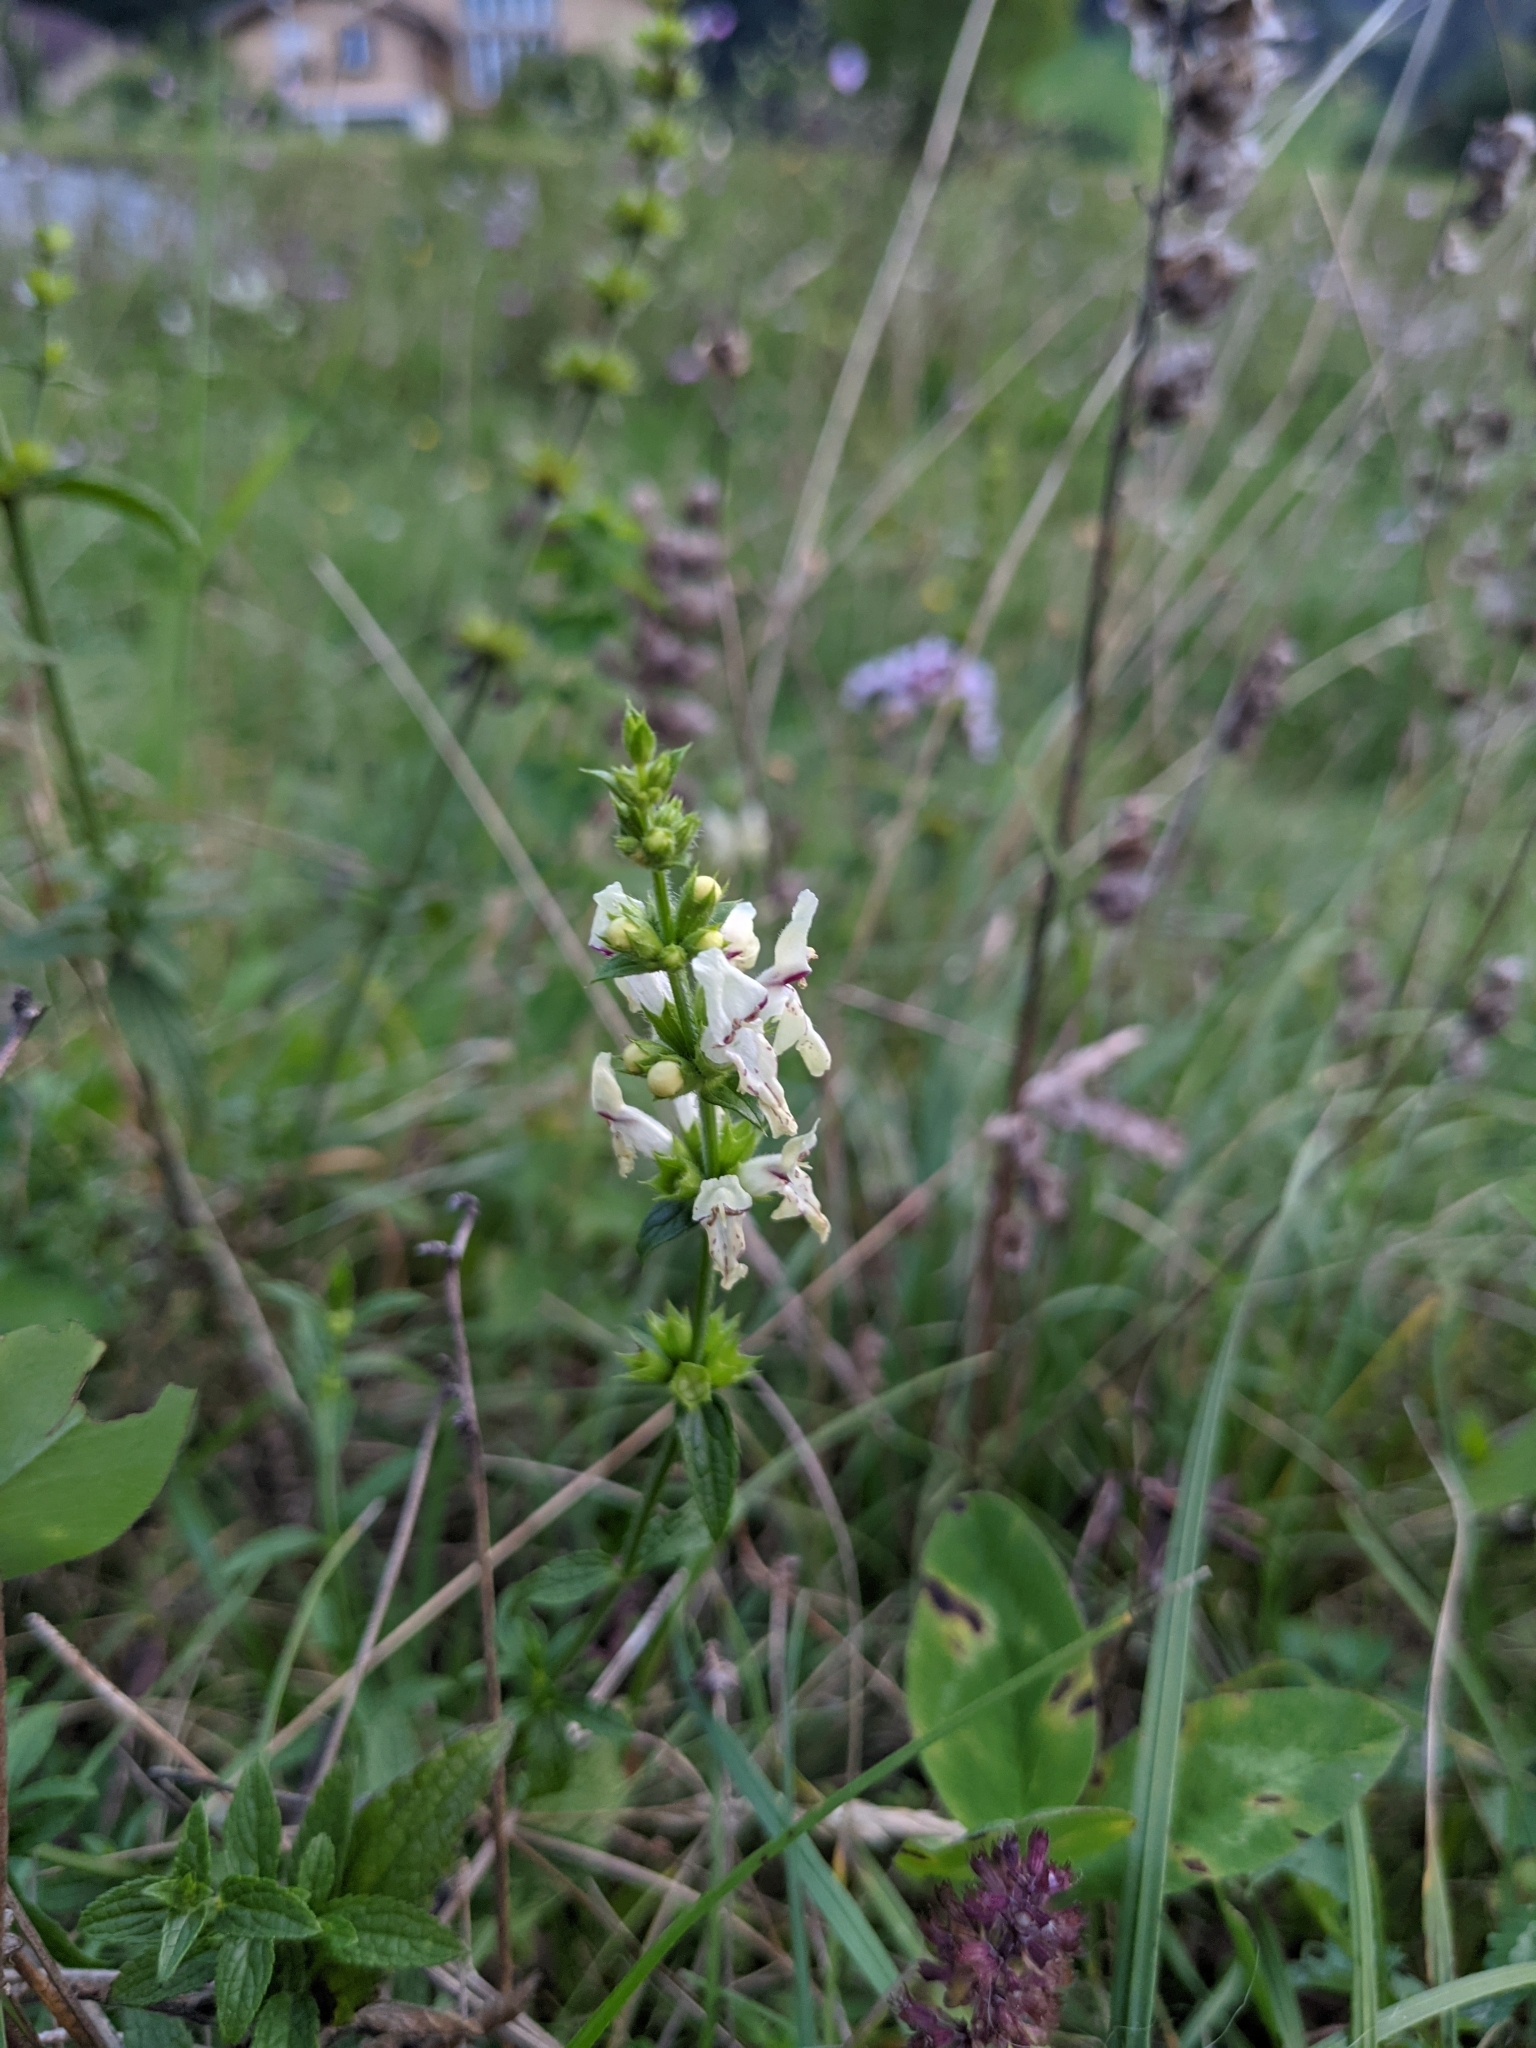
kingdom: Plantae
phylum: Tracheophyta
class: Magnoliopsida
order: Lamiales
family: Lamiaceae
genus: Stachys
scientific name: Stachys recta
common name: Perennial yellow-woundwort
